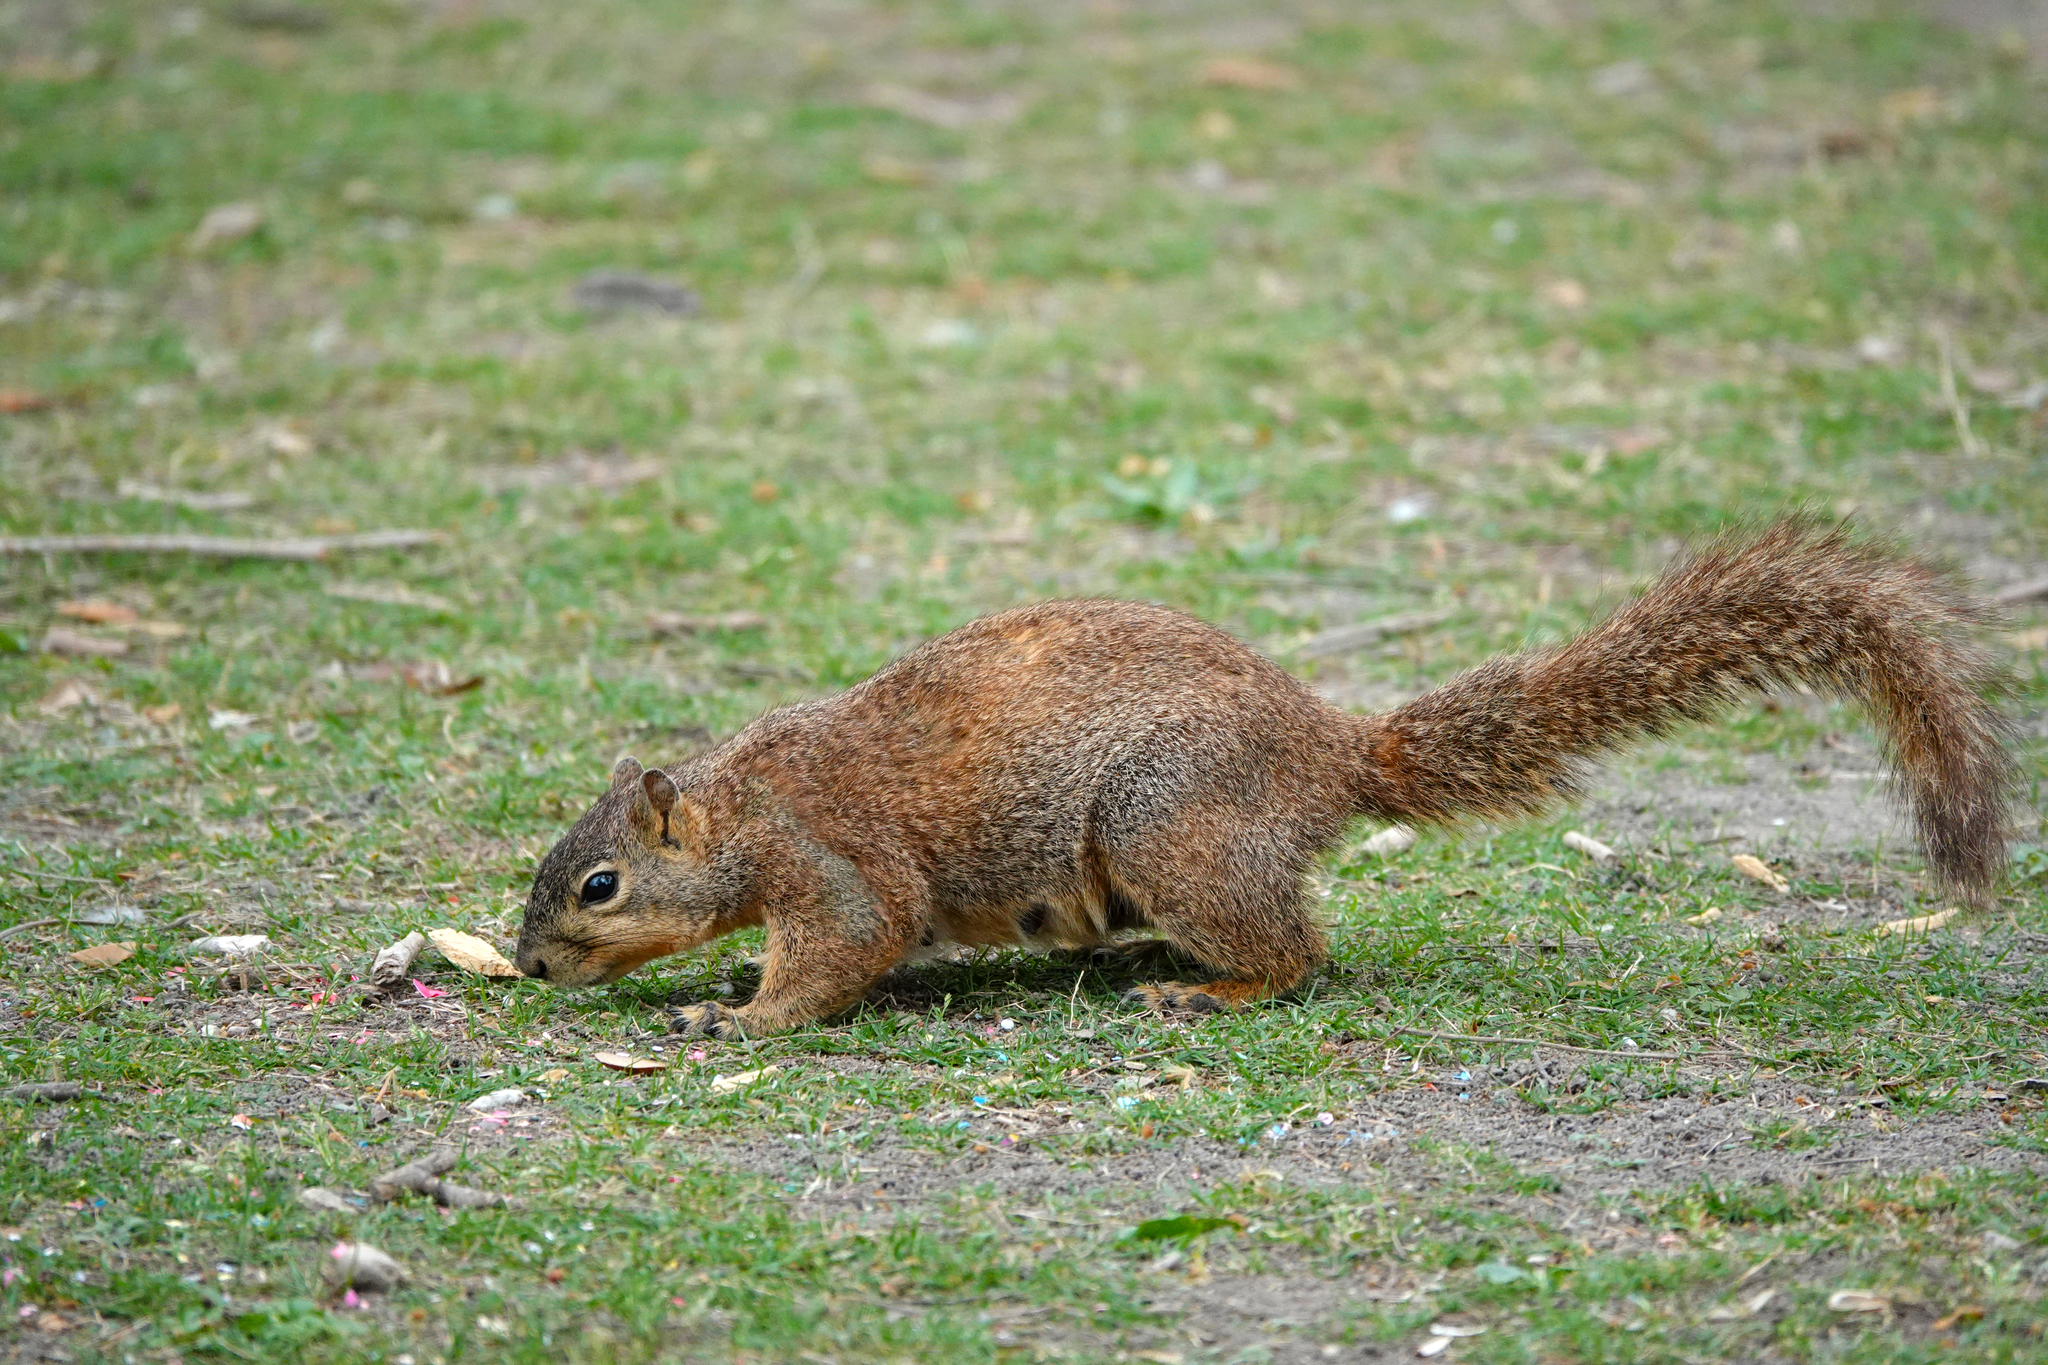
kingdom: Animalia
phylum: Chordata
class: Mammalia
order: Rodentia
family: Sciuridae
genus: Sciurus
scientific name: Sciurus niger
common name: Fox squirrel
